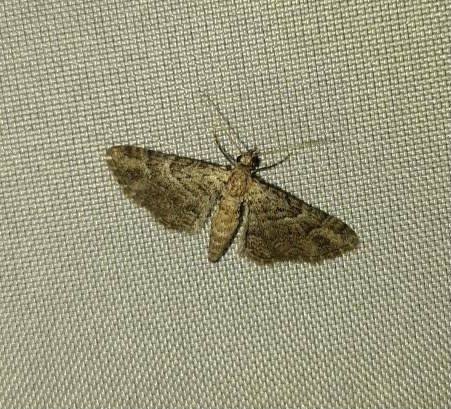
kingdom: Animalia
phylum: Arthropoda
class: Insecta
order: Lepidoptera
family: Geometridae
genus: Gymnoscelis
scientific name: Gymnoscelis rufifasciata
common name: Double-striped pug
